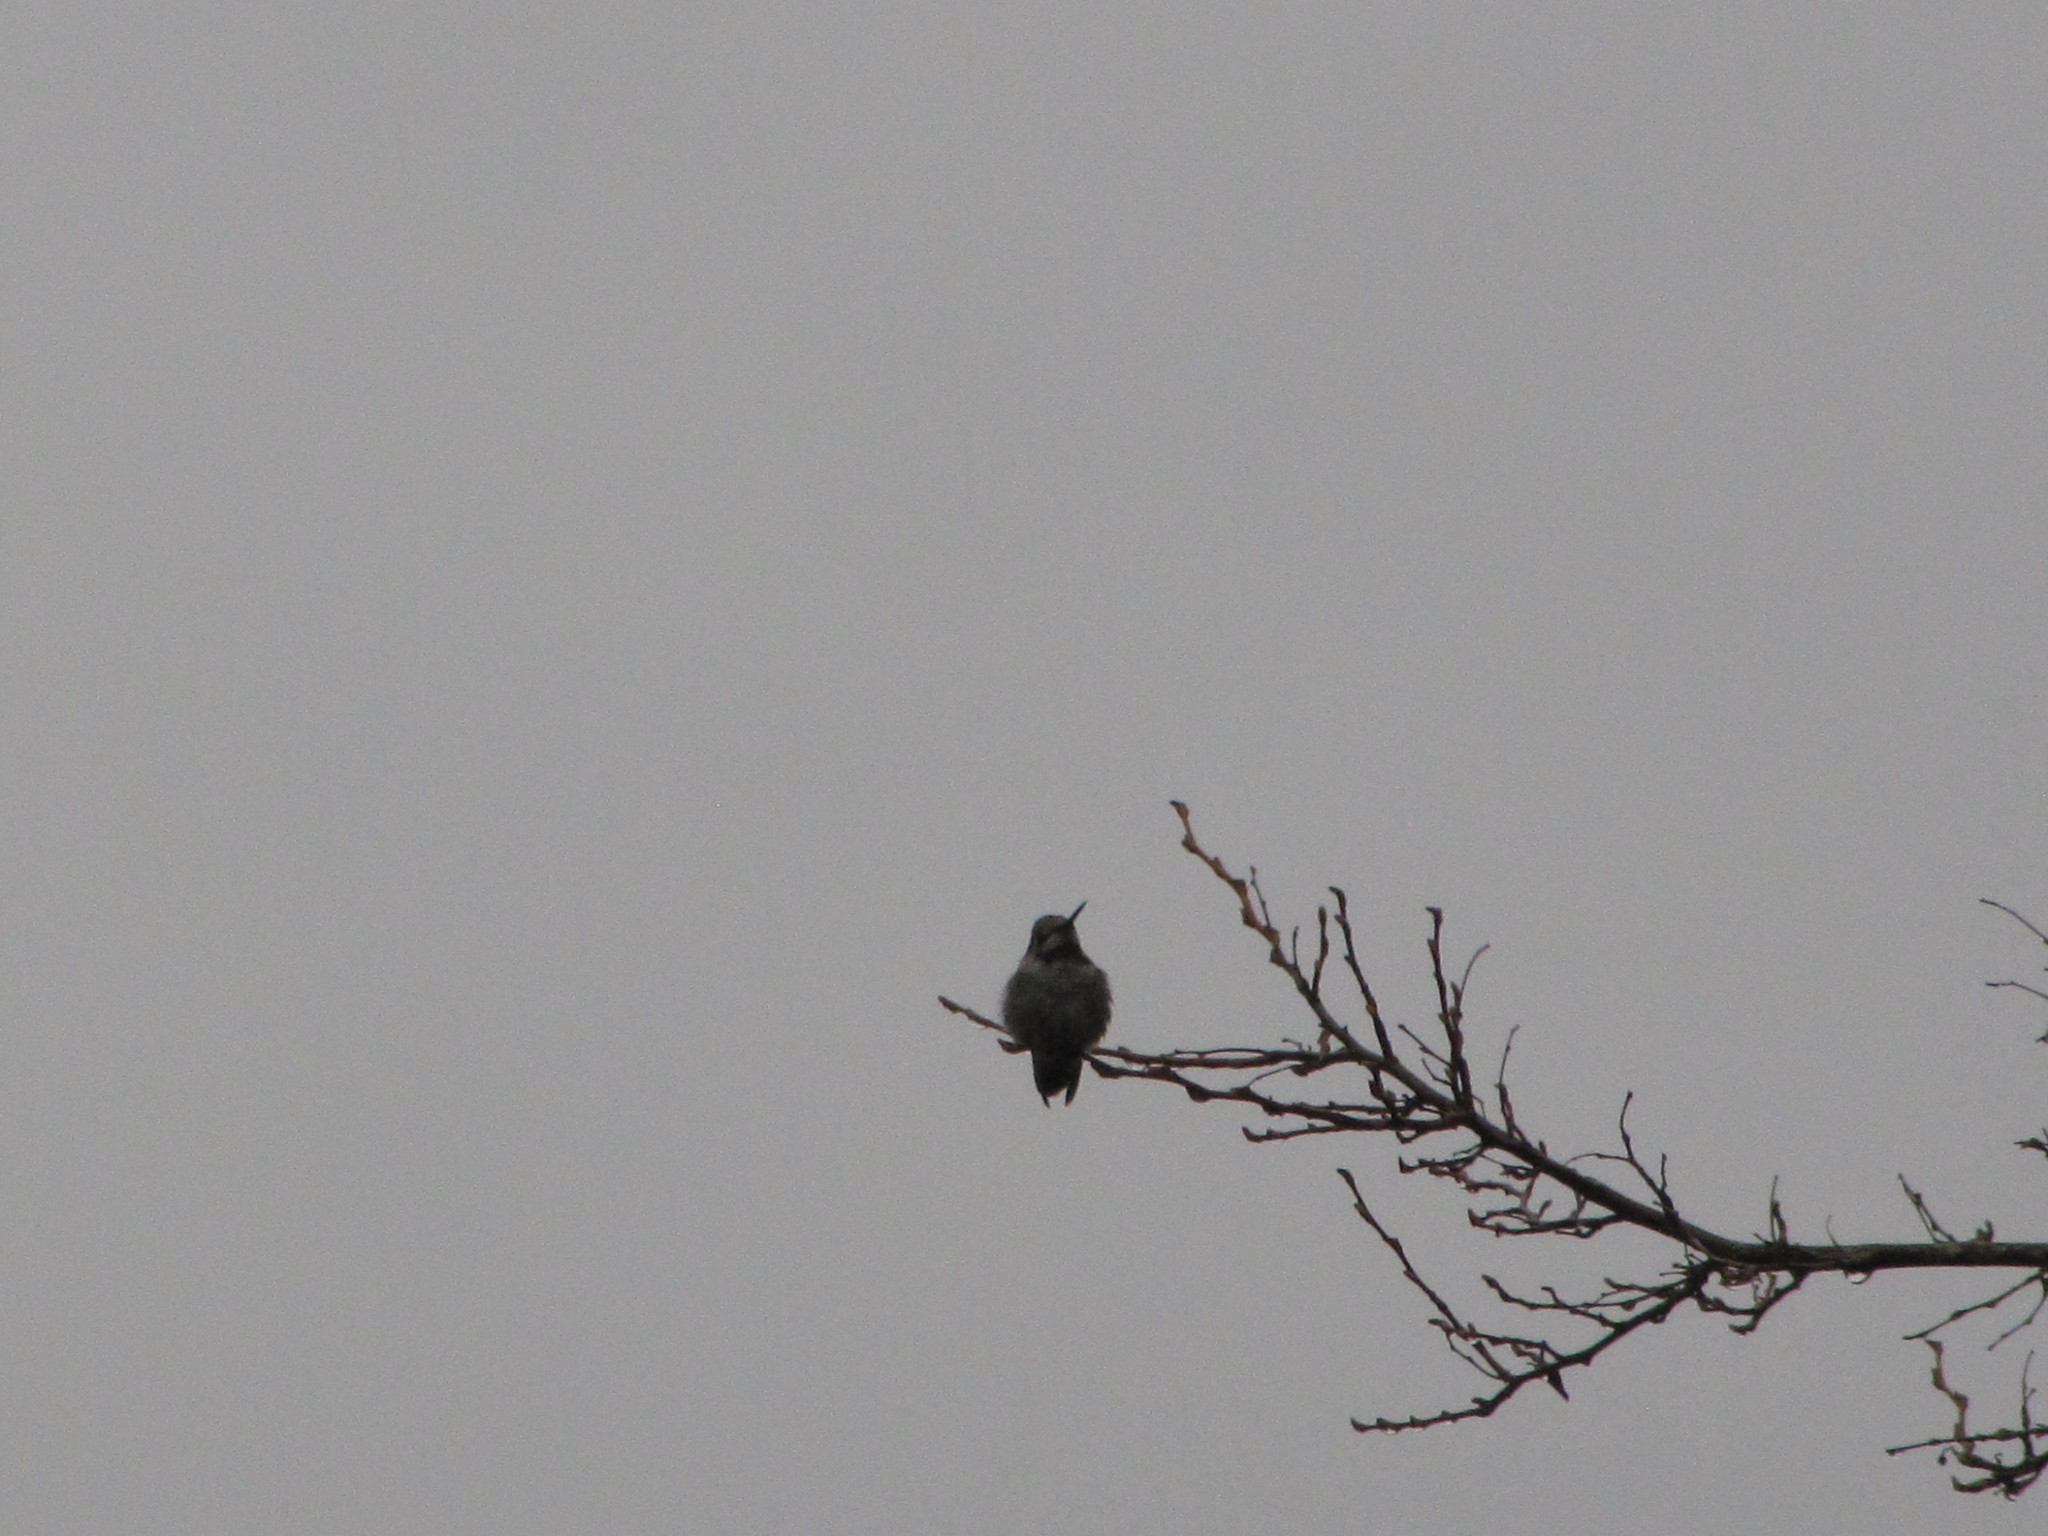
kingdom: Animalia
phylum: Chordata
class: Aves
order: Apodiformes
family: Trochilidae
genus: Calypte
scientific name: Calypte anna
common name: Anna's hummingbird
